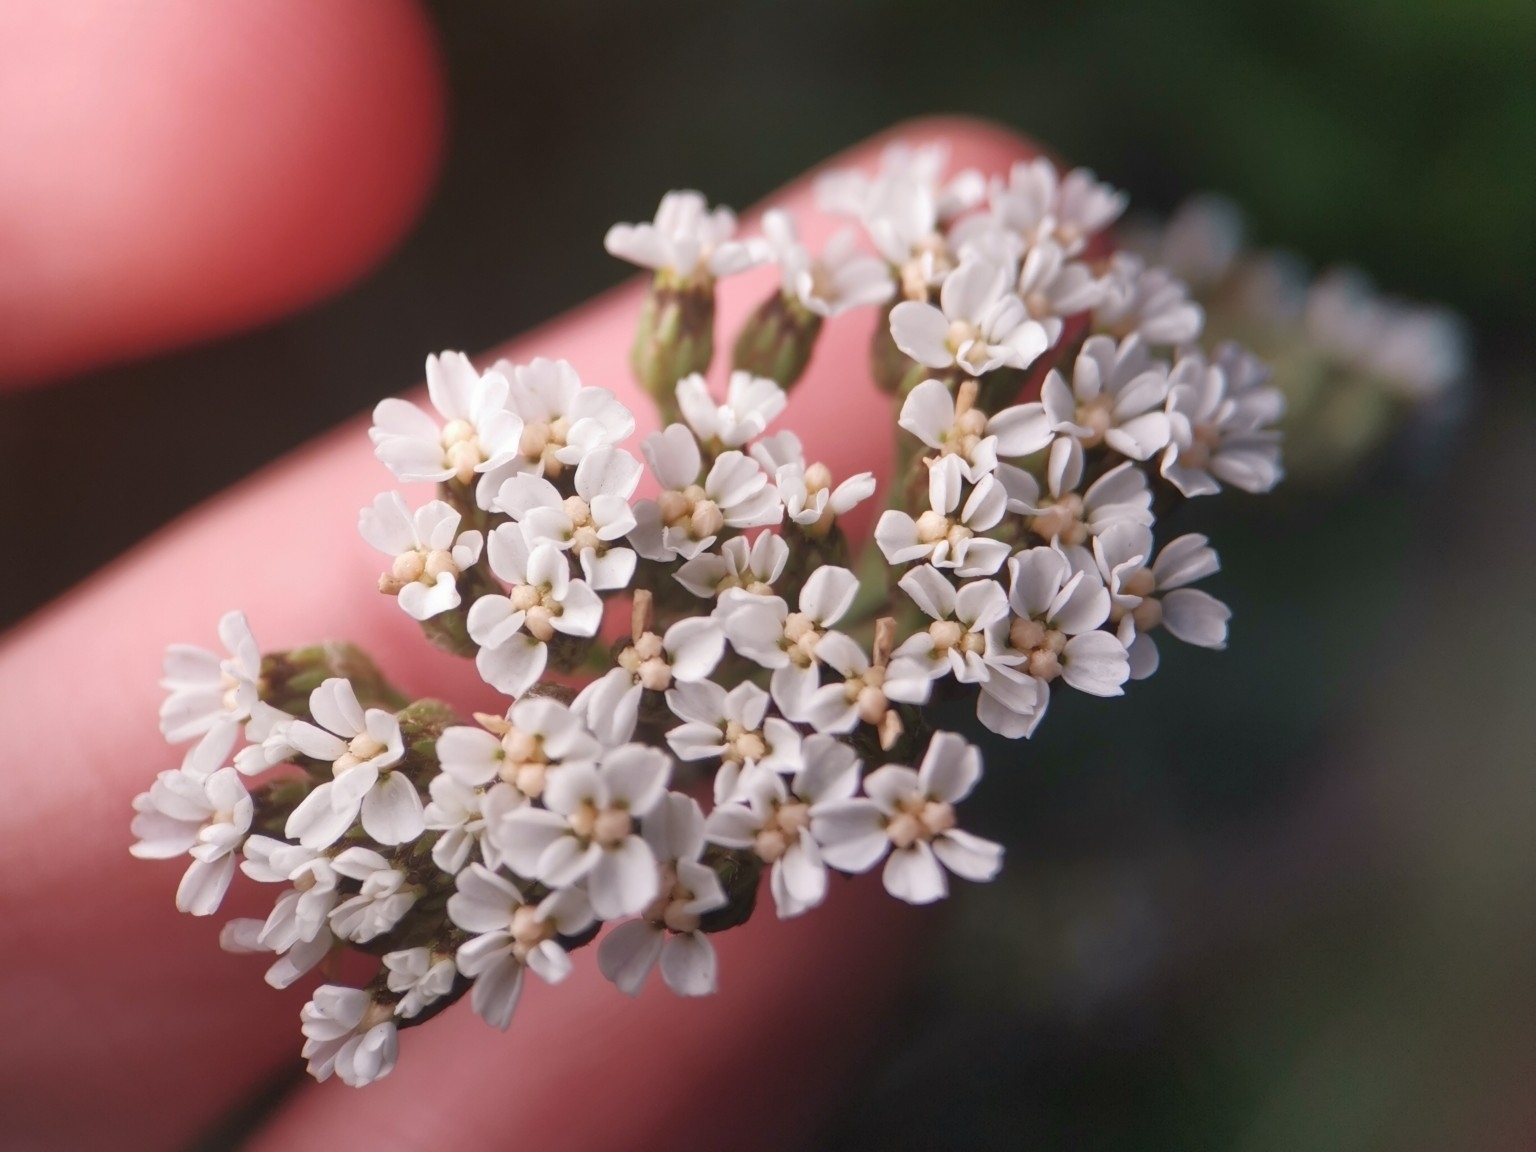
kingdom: Plantae
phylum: Tracheophyta
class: Magnoliopsida
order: Asterales
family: Asteraceae
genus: Achillea
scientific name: Achillea millefolium
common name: Yarrow
